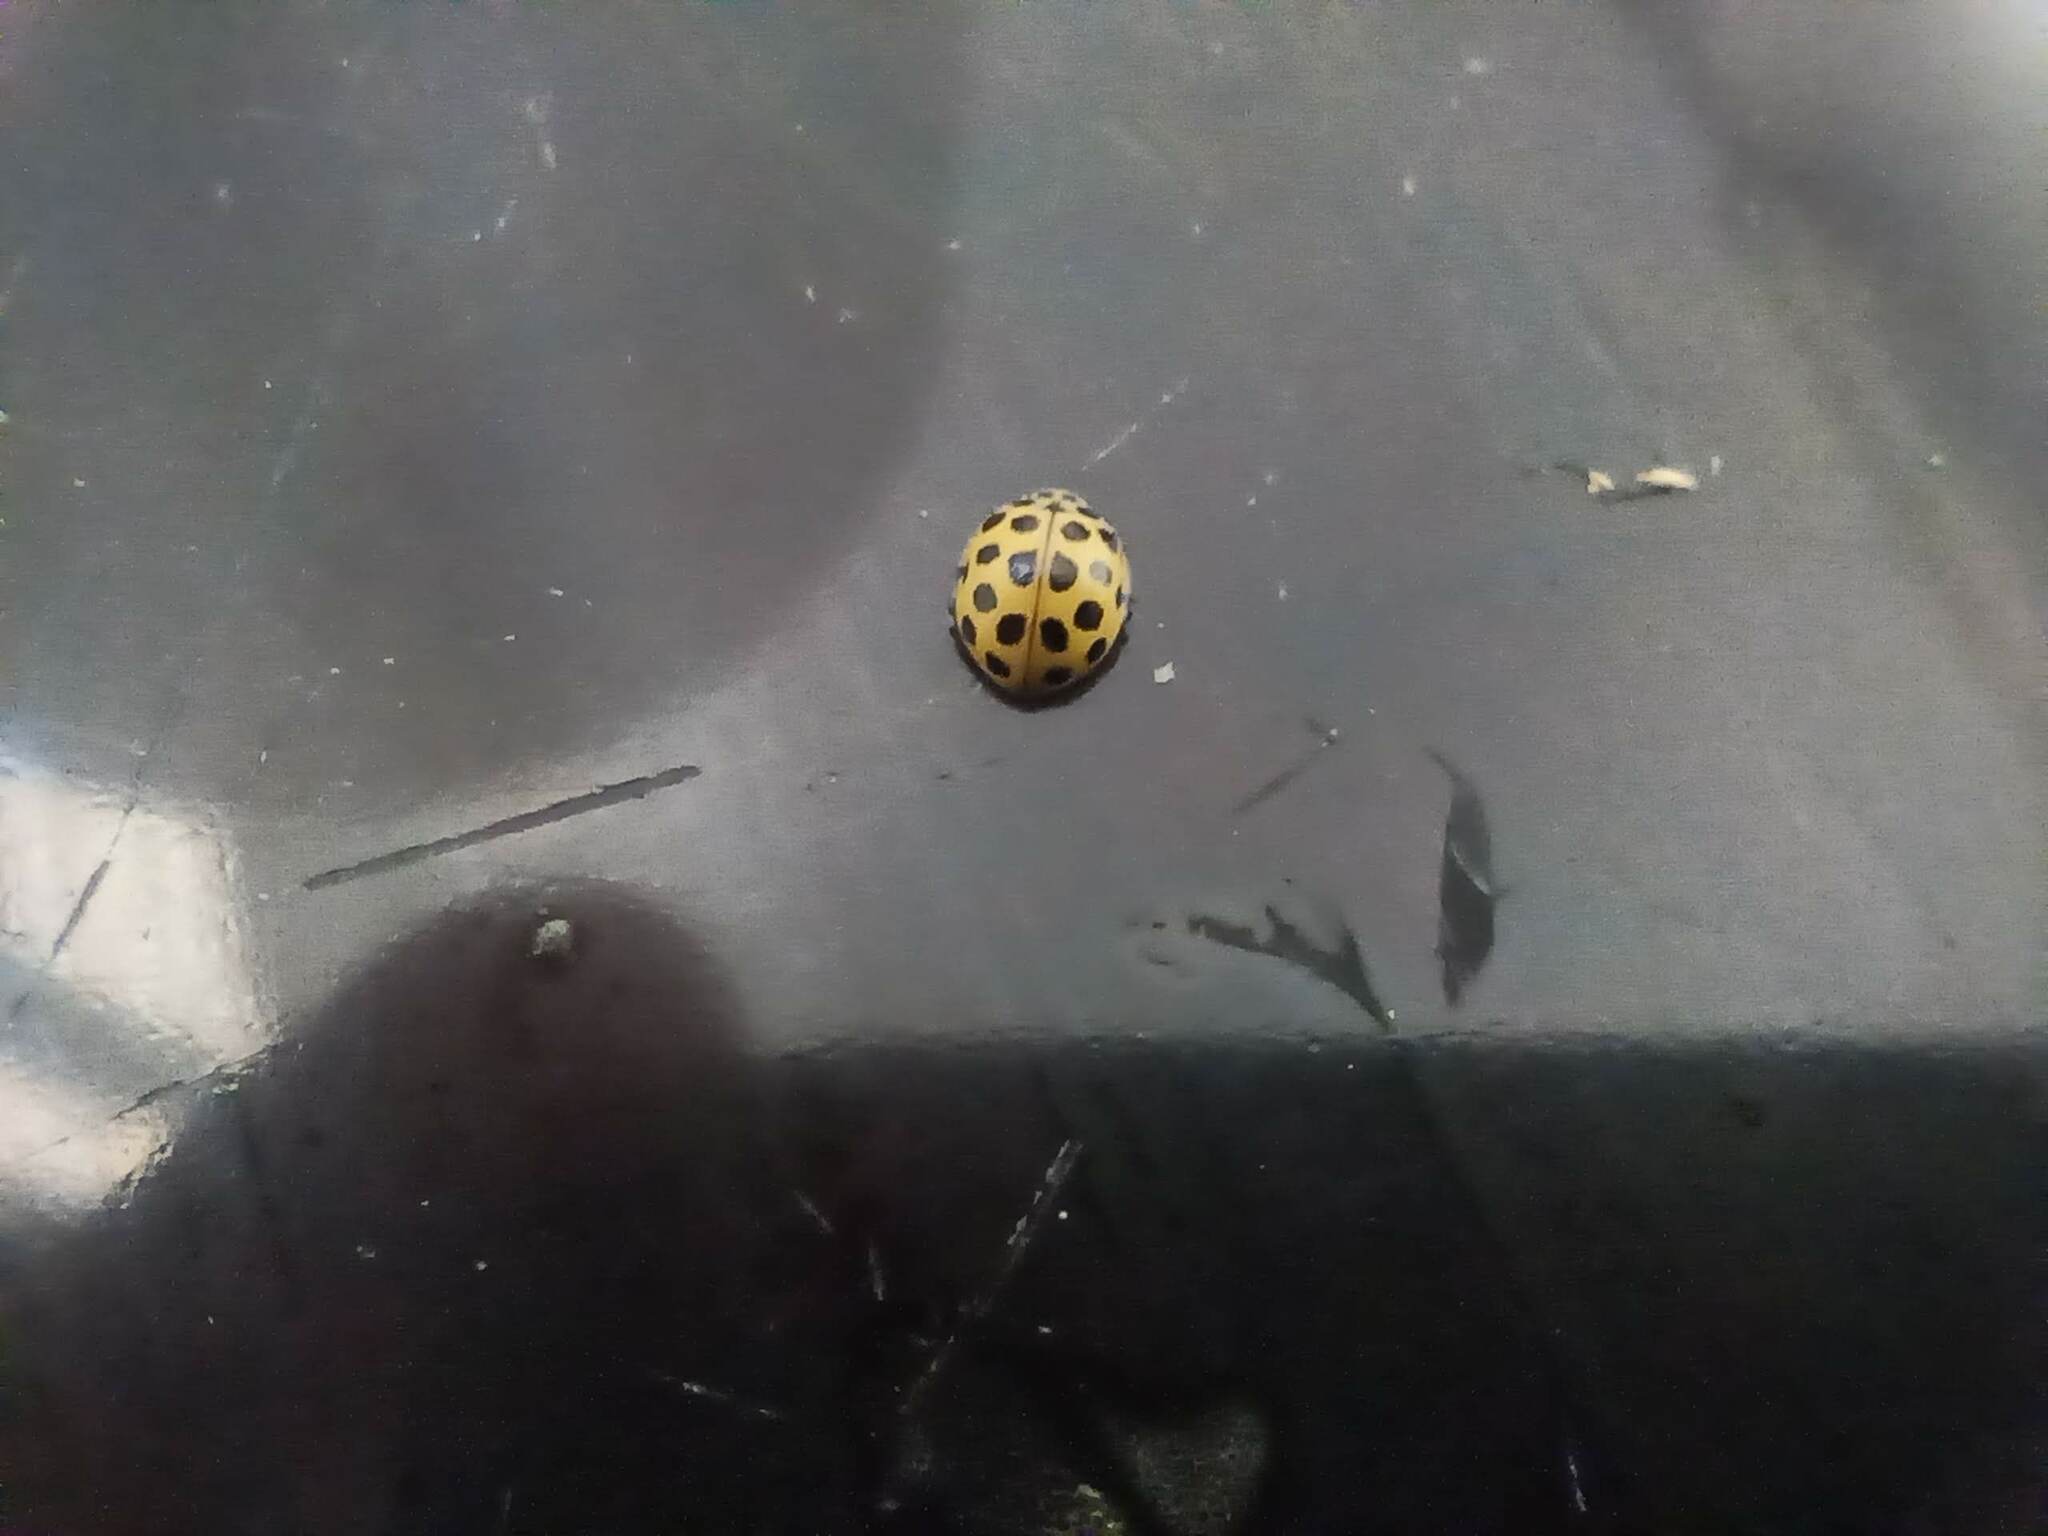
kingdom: Animalia
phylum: Arthropoda
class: Insecta
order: Coleoptera
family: Coccinellidae
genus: Psyllobora
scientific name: Psyllobora vigintiduopunctata
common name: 22-spot ladybird
